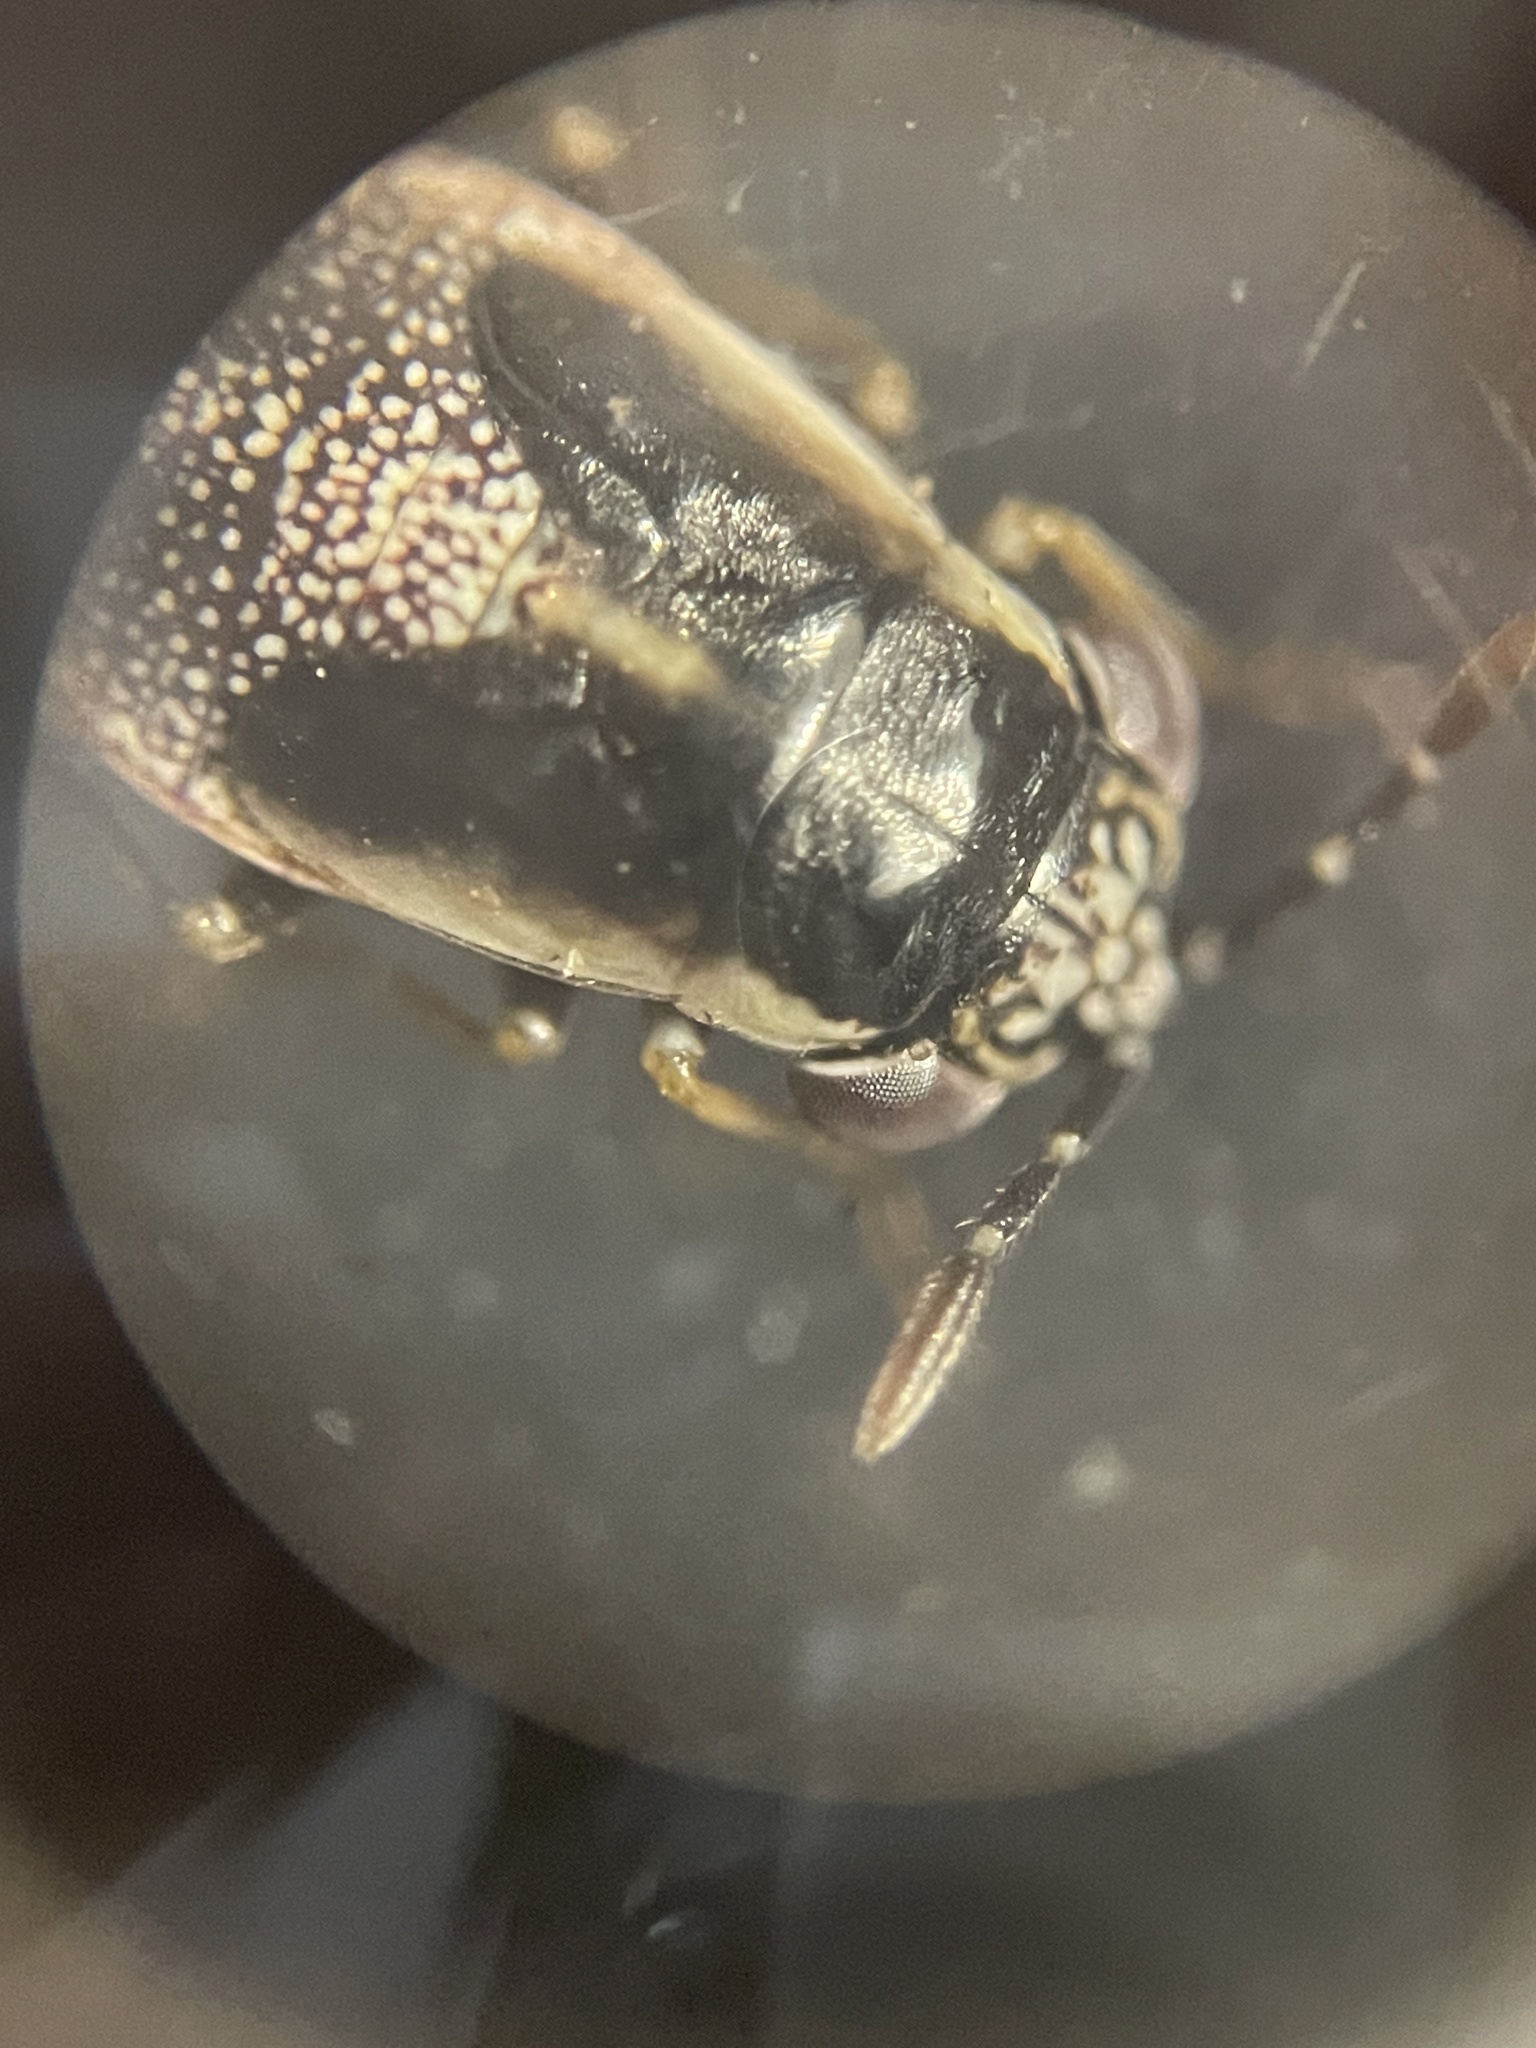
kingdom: Animalia
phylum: Arthropoda
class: Insecta
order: Hemiptera
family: Geocoridae
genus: Geocoris
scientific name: Geocoris lividipennis
